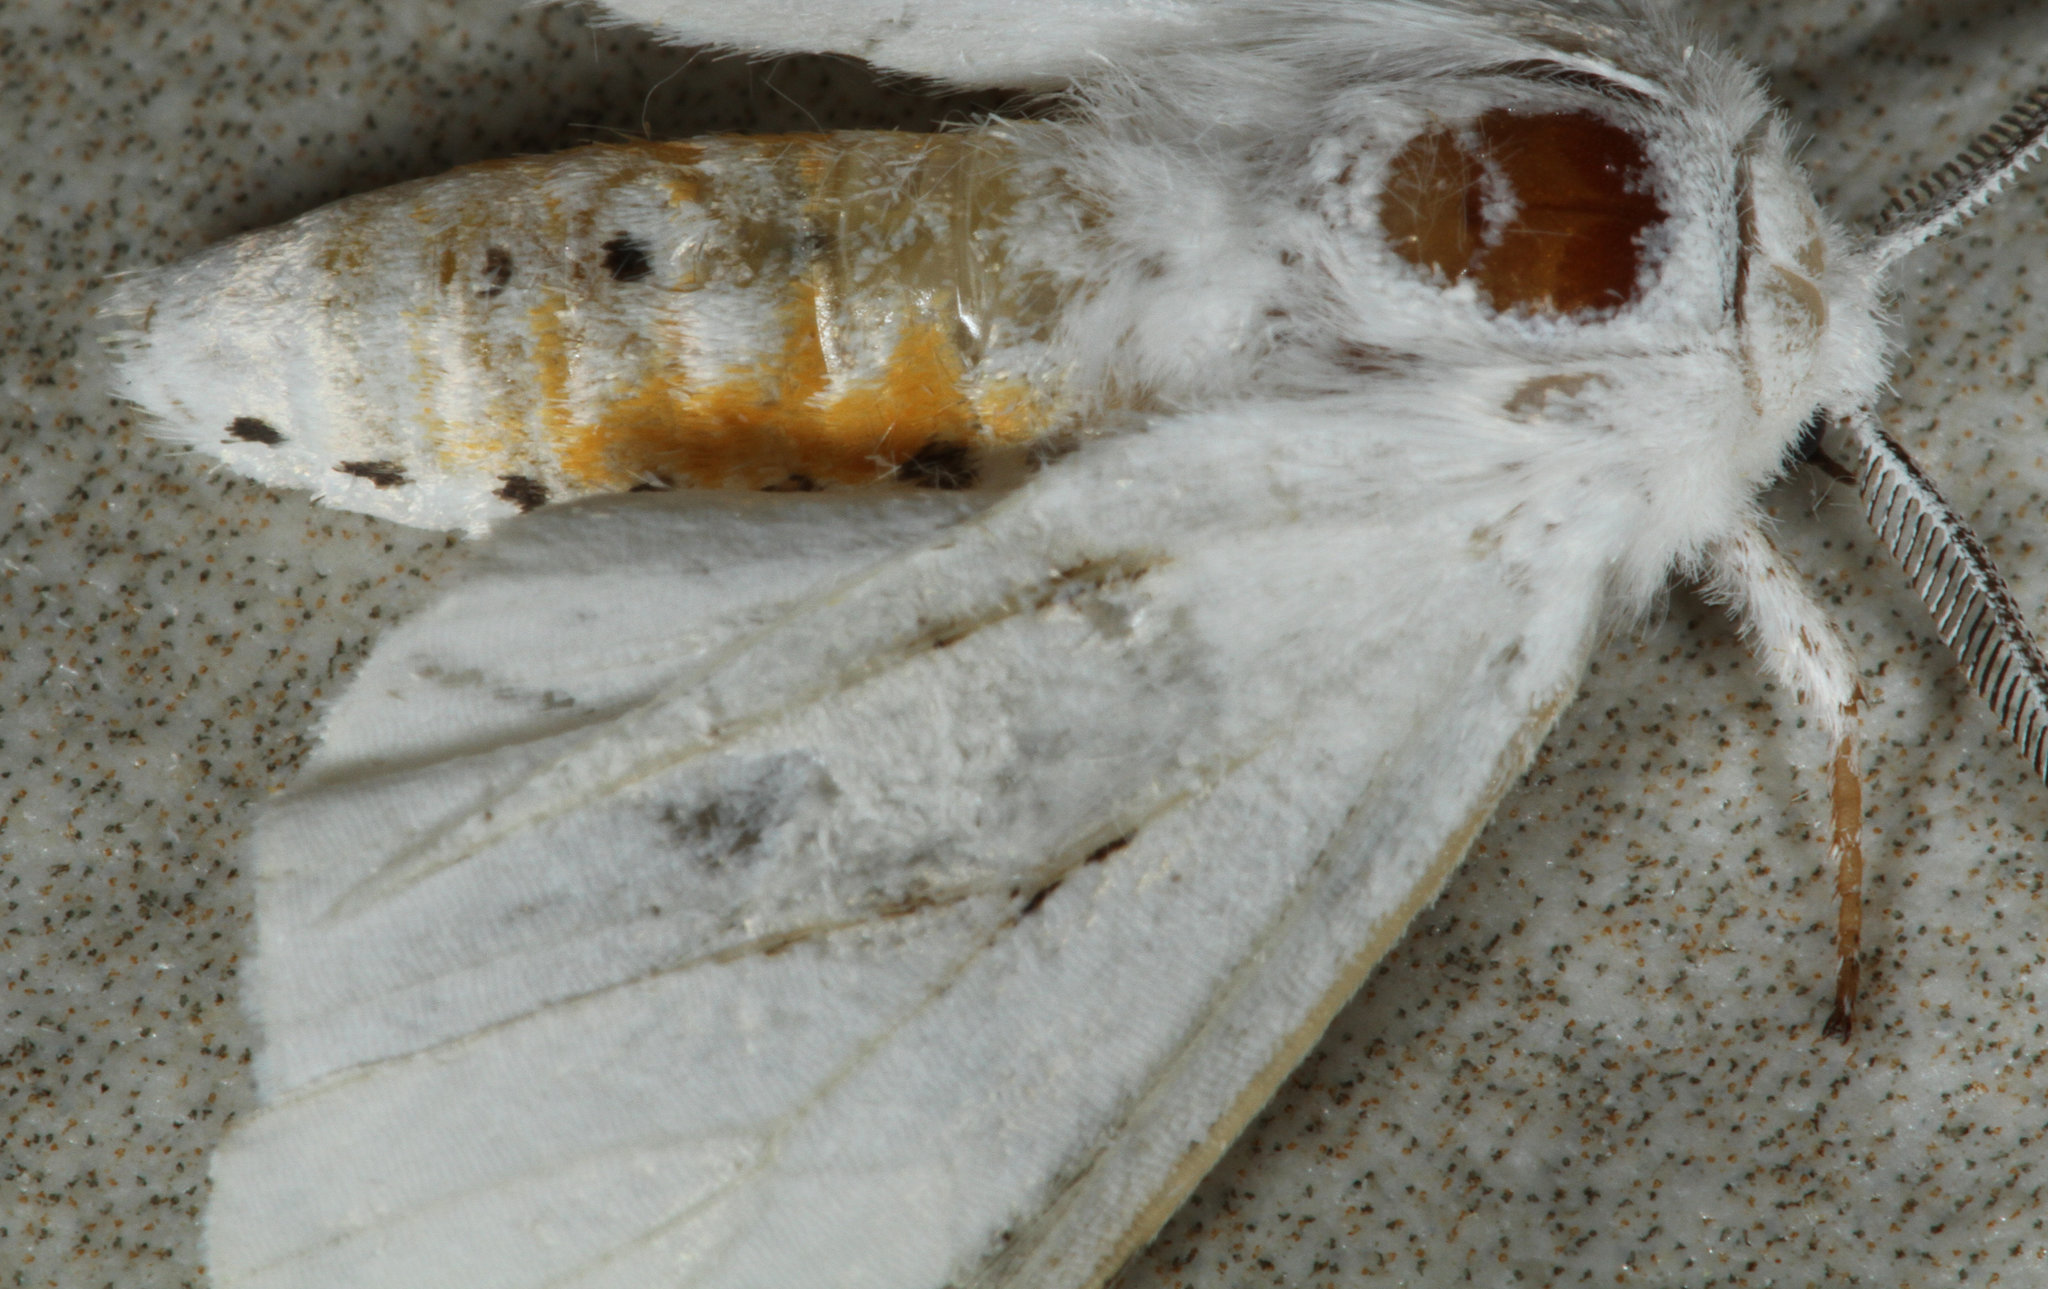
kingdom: Animalia
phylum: Arthropoda
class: Insecta
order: Lepidoptera
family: Erebidae
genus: Spilosoma
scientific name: Spilosoma virginica
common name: Virginia tiger moth
